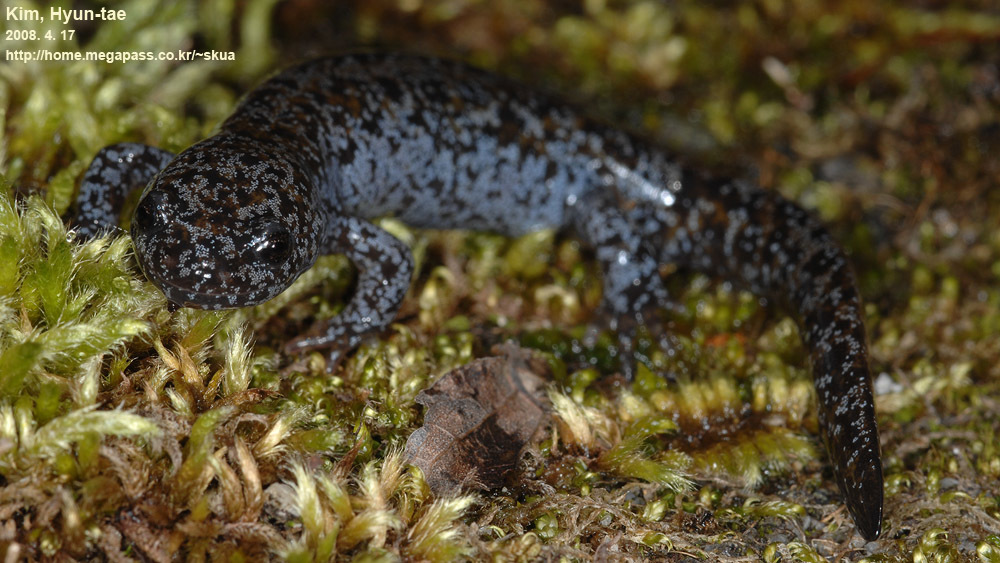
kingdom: Animalia
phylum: Chordata
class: Amphibia
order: Caudata
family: Hynobiidae
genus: Hynobius
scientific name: Hynobius leechii
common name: Gensan salamander
